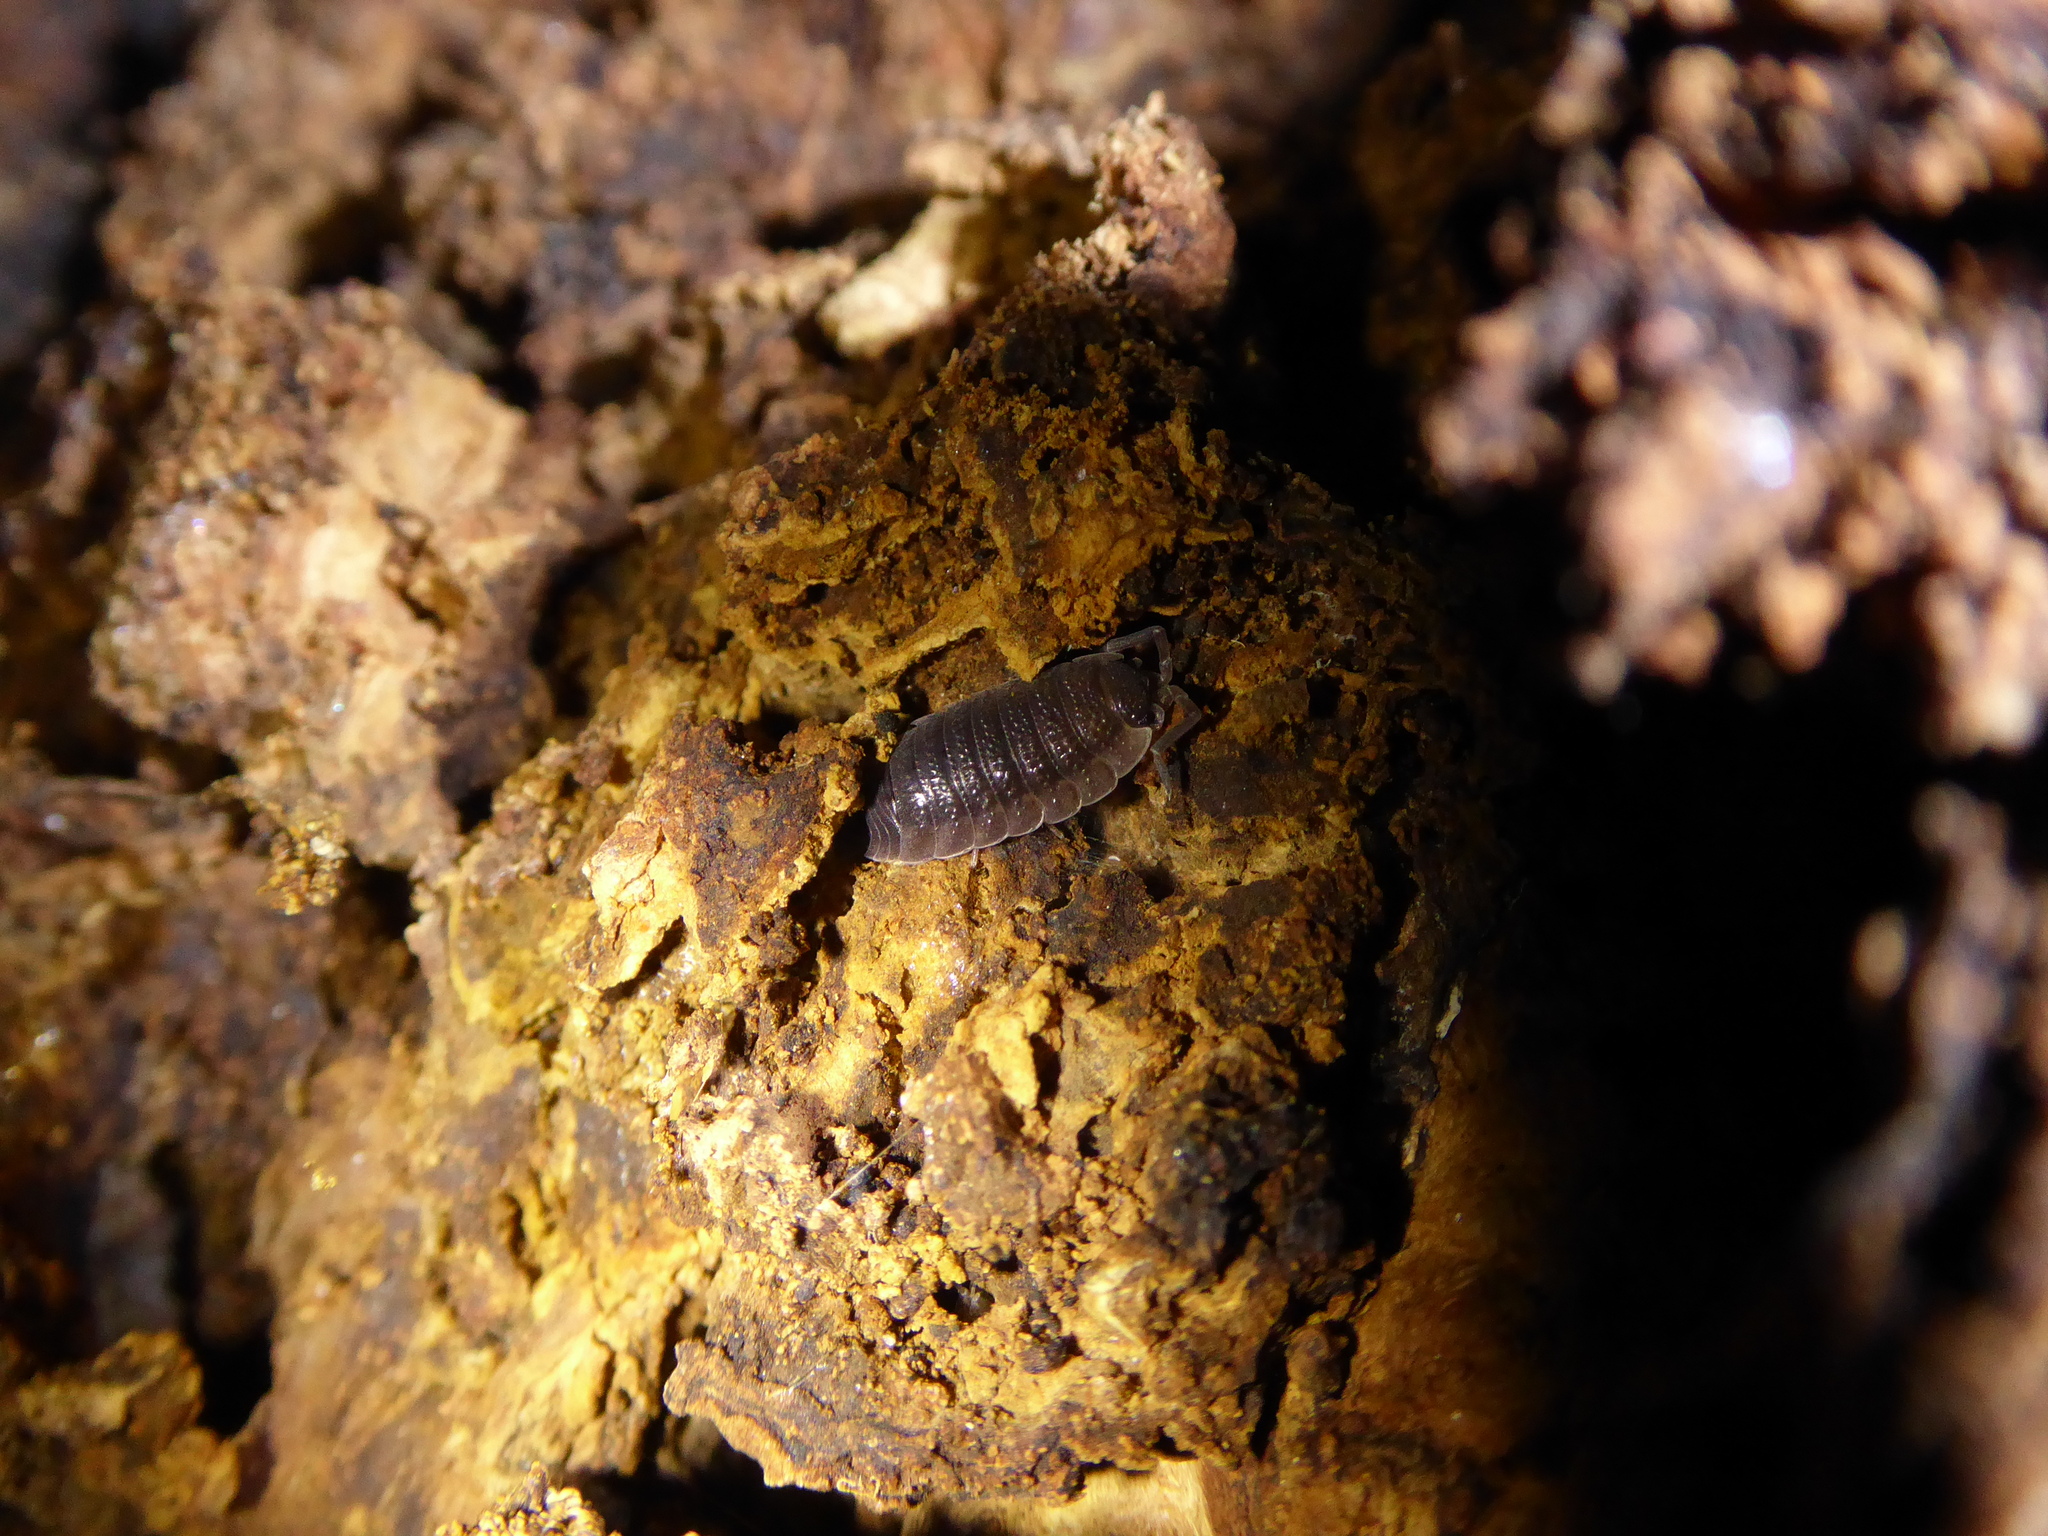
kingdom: Animalia
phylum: Arthropoda
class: Malacostraca
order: Isopoda
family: Porcellionidae
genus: Porcellio
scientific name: Porcellio scaber
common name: Common rough woodlouse
